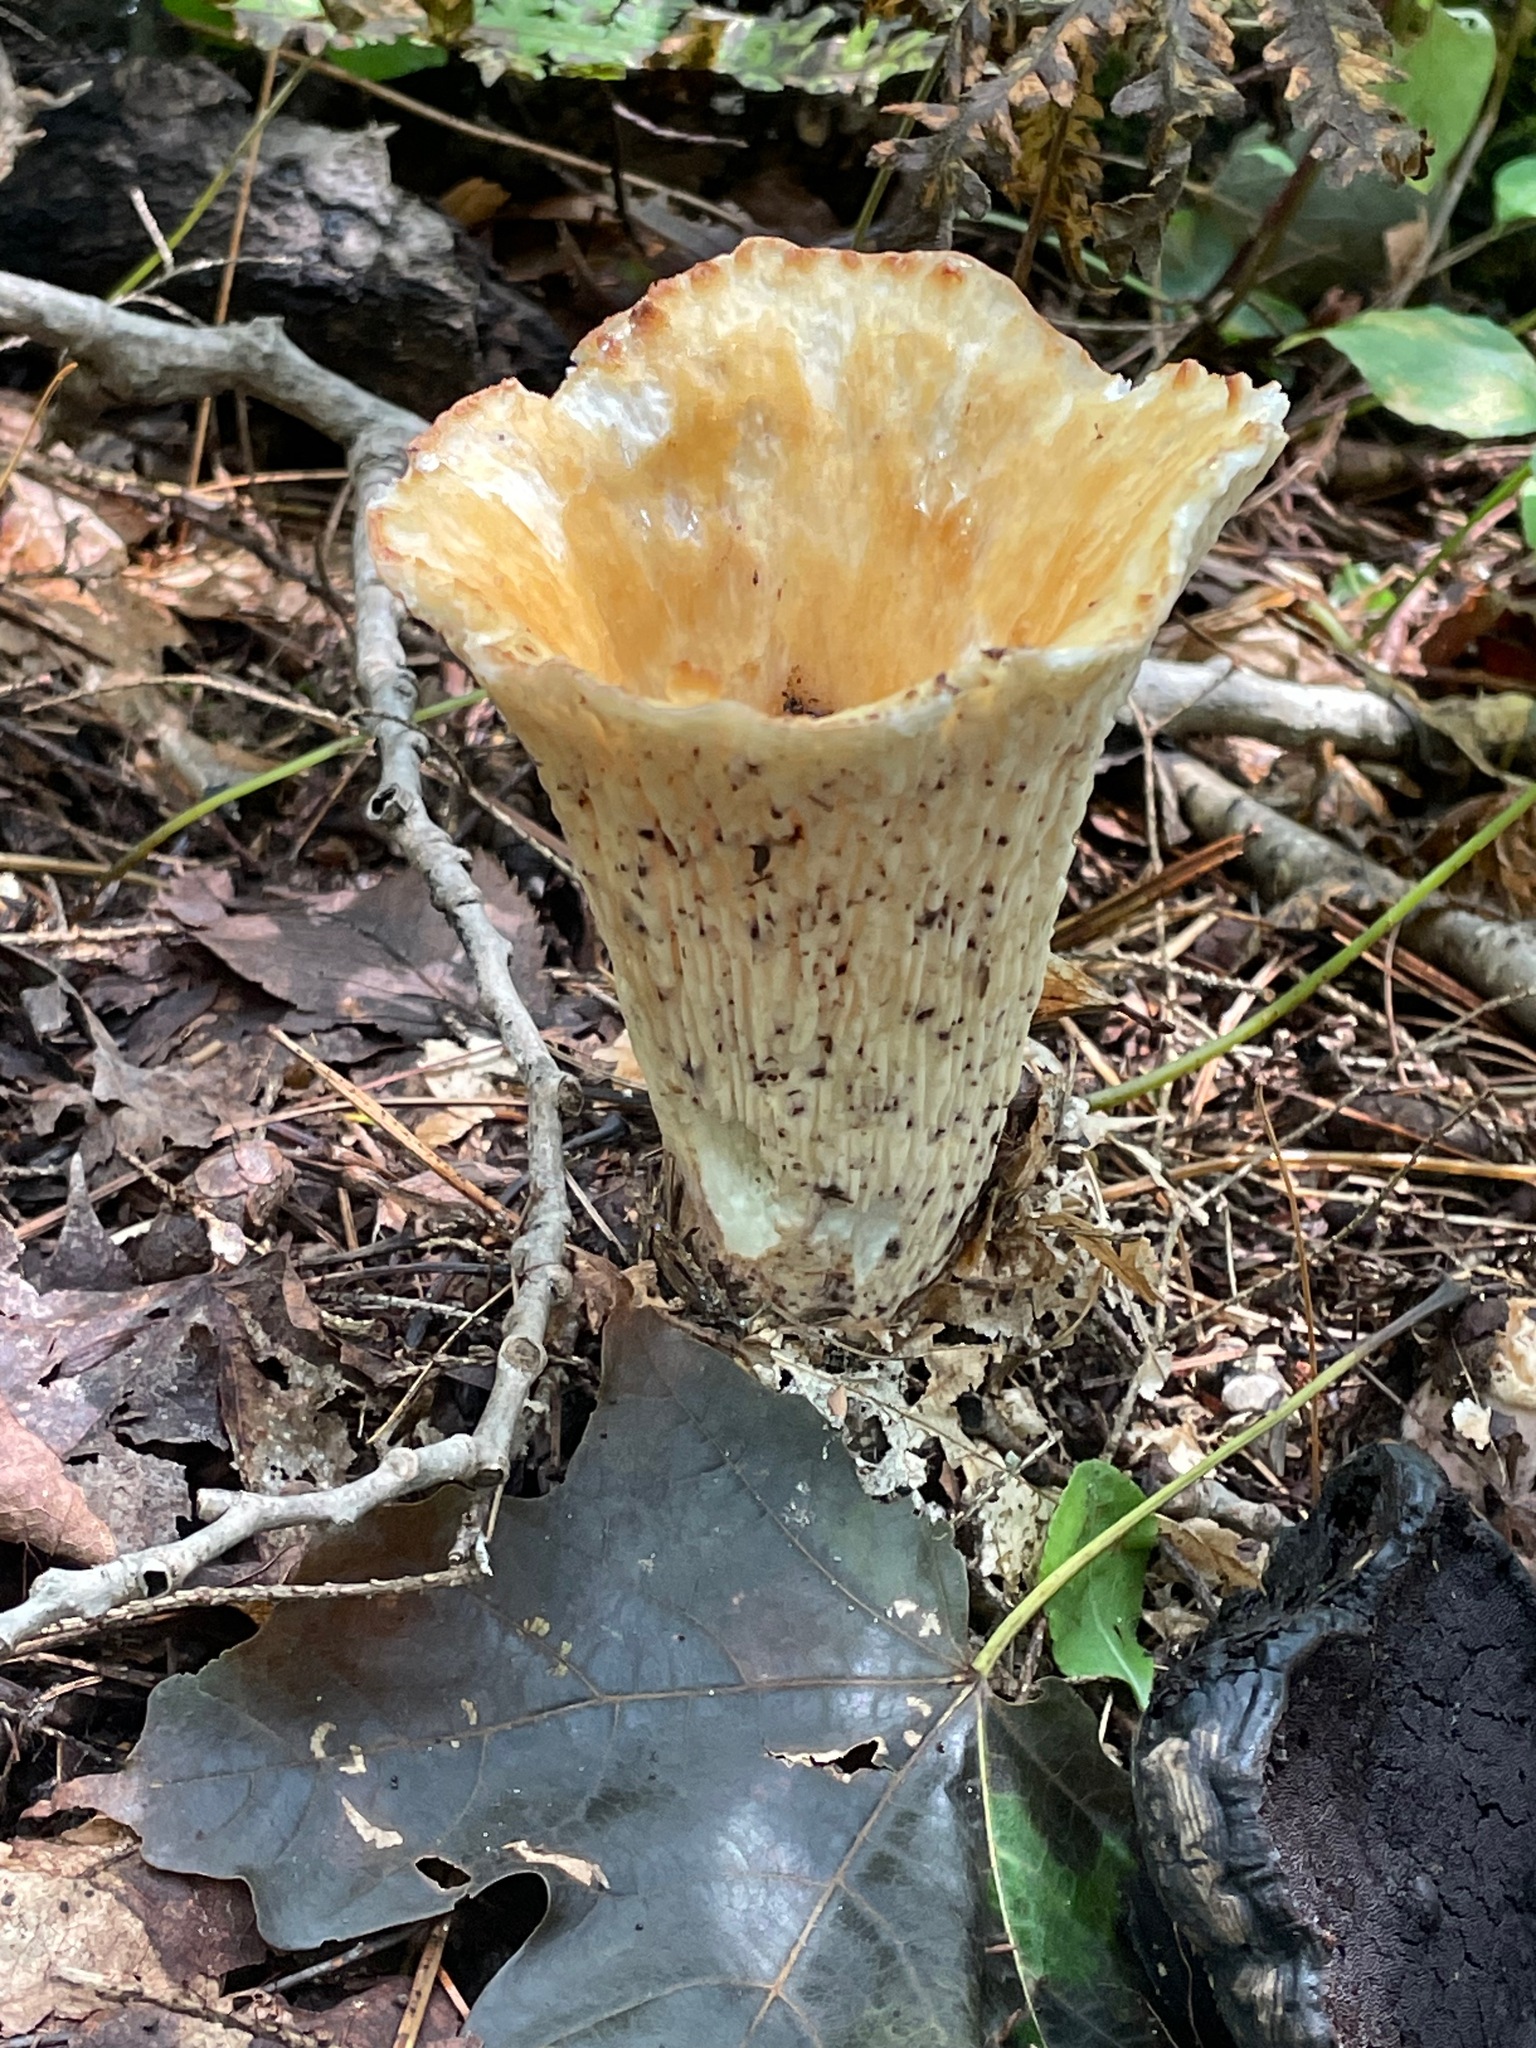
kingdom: Fungi
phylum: Basidiomycota
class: Agaricomycetes
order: Gomphales
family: Gomphaceae
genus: Turbinellus
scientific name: Turbinellus floccosus
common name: Scaly chanterelle
